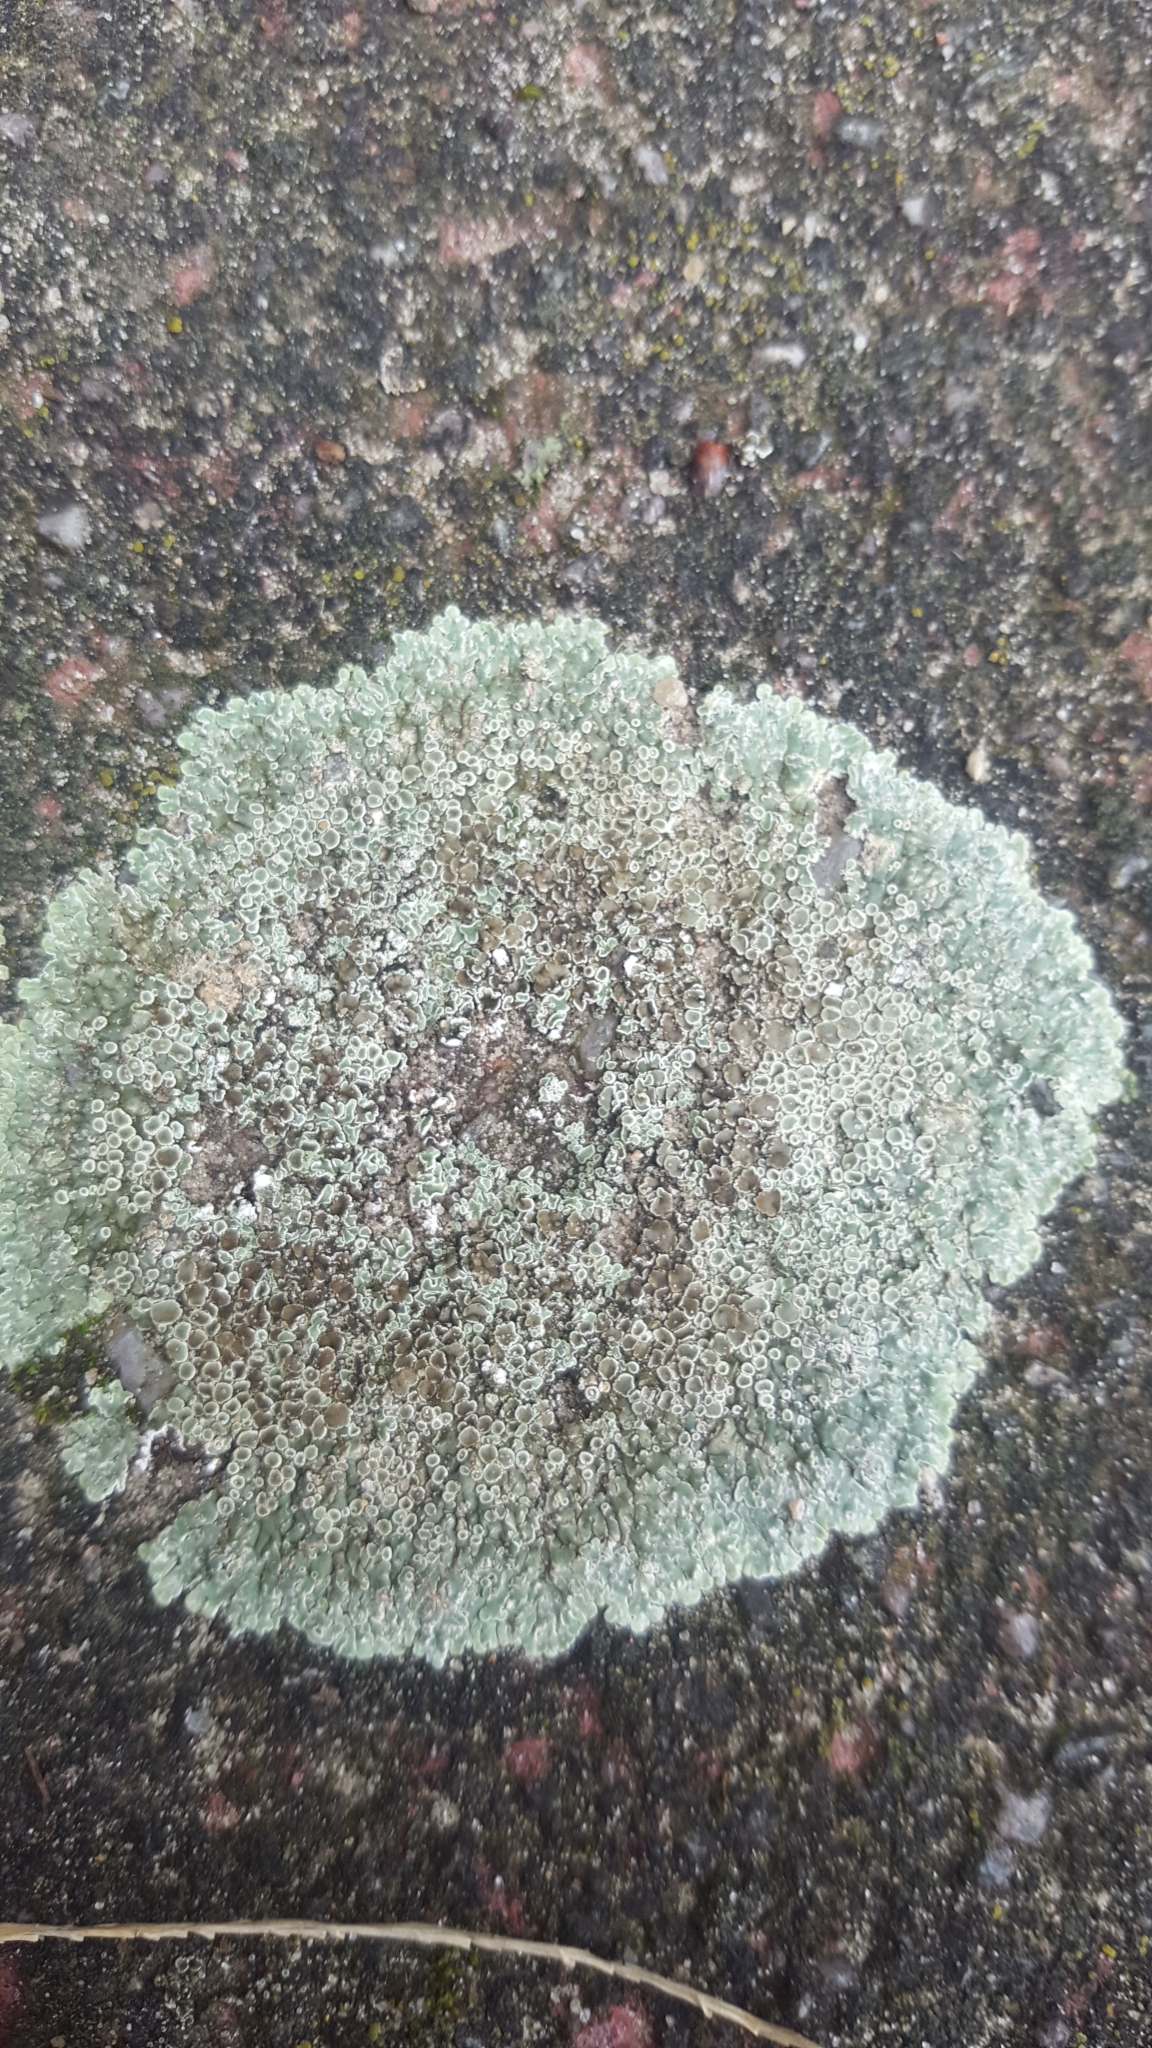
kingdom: Fungi
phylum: Ascomycota
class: Lecanoromycetes
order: Lecanorales
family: Lecanoraceae
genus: Protoparmeliopsis
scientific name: Protoparmeliopsis muralis
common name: Stonewall rim lichen
